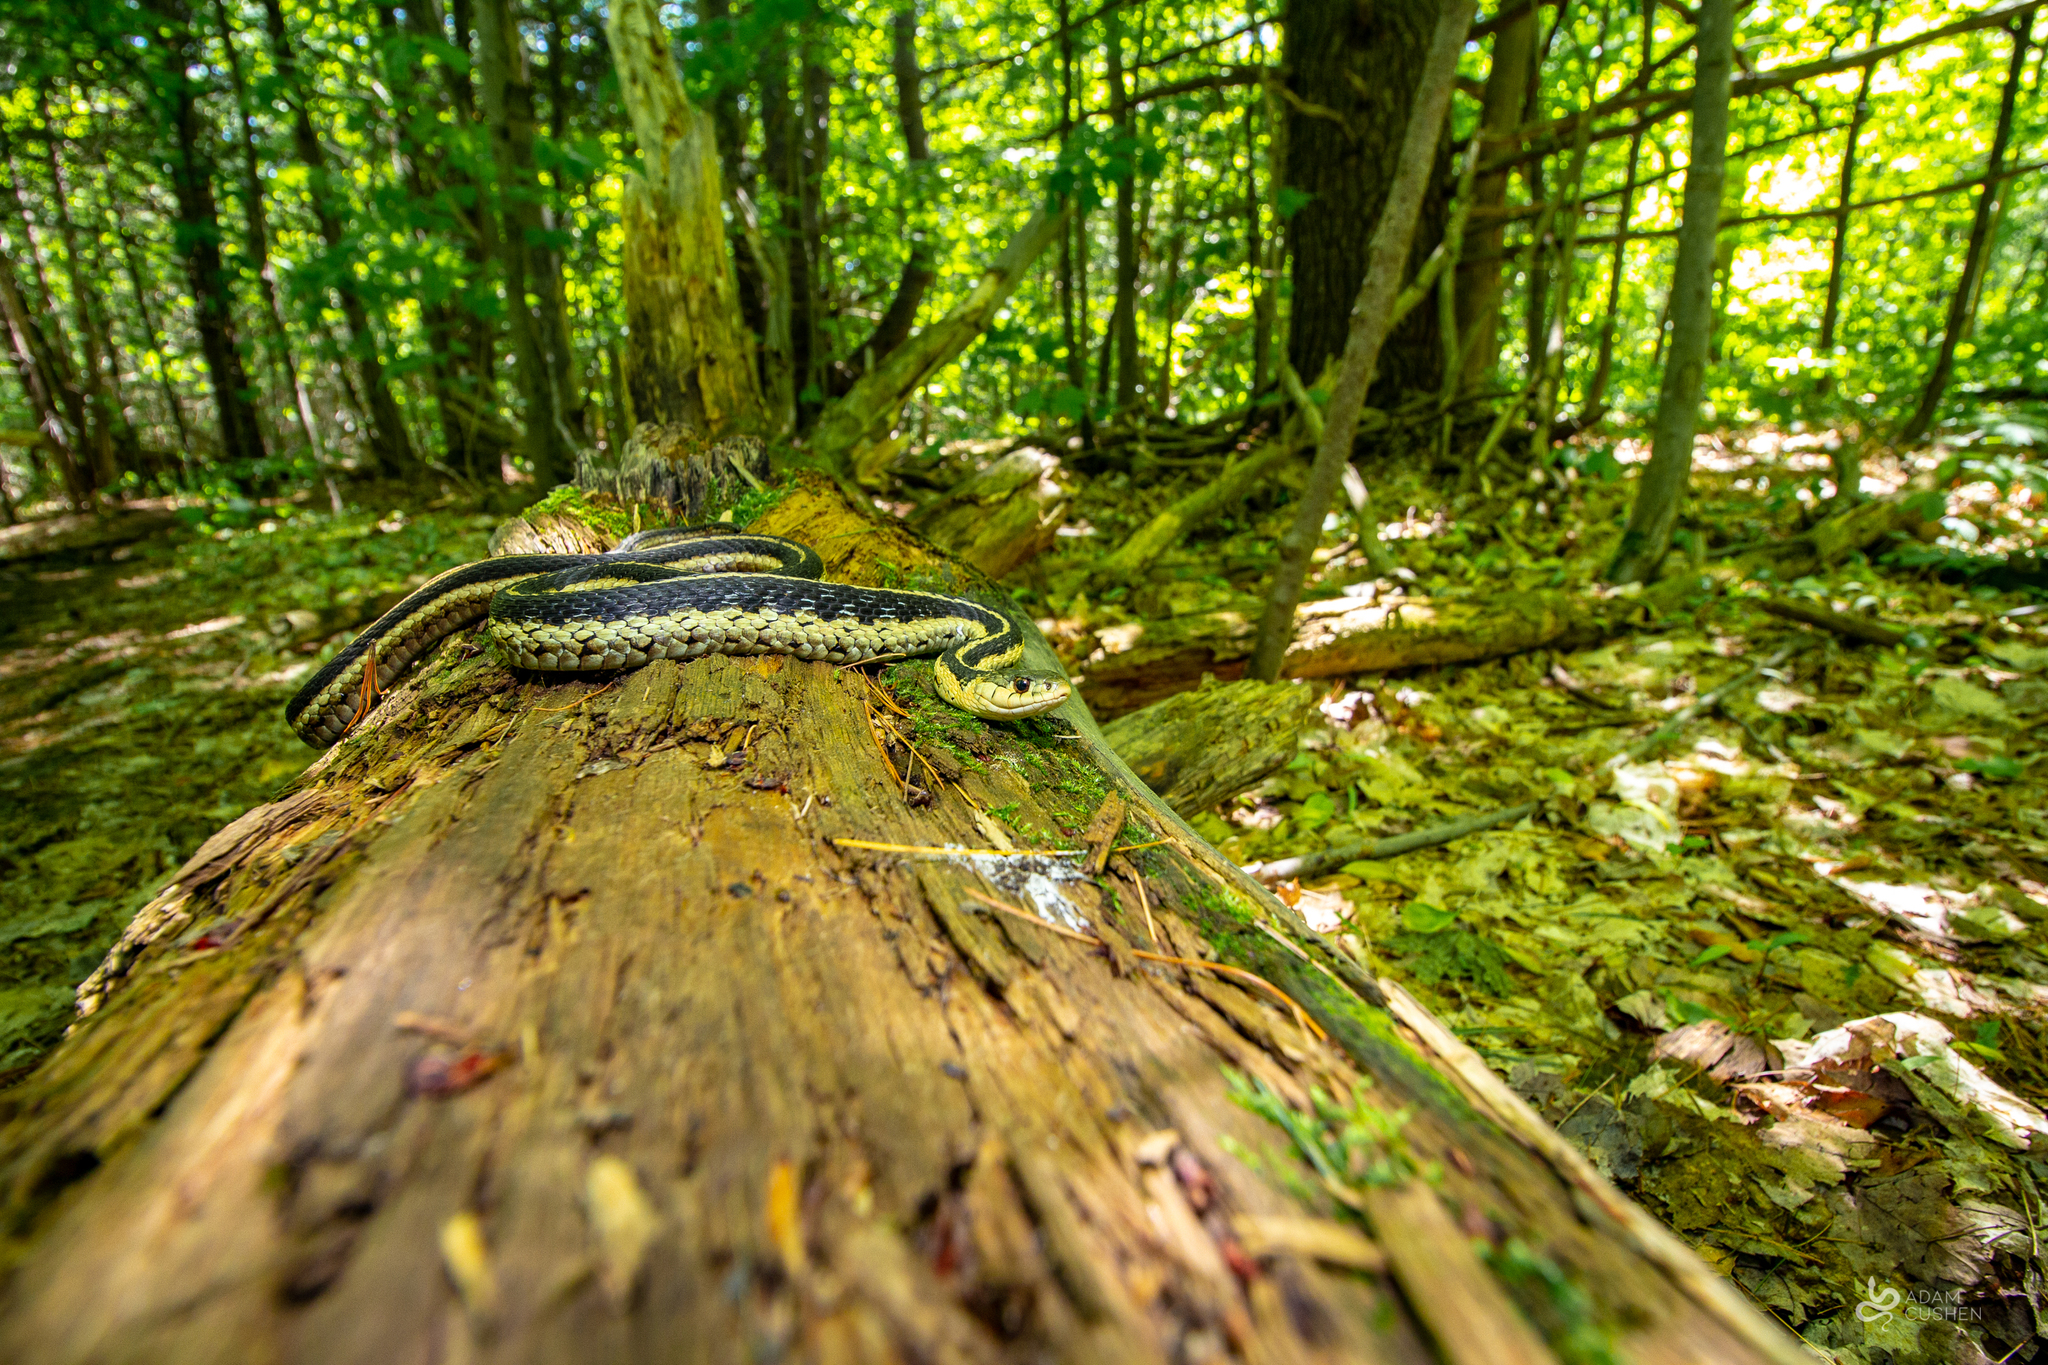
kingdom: Animalia
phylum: Chordata
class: Squamata
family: Colubridae
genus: Thamnophis
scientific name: Thamnophis sirtalis
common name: Common garter snake
